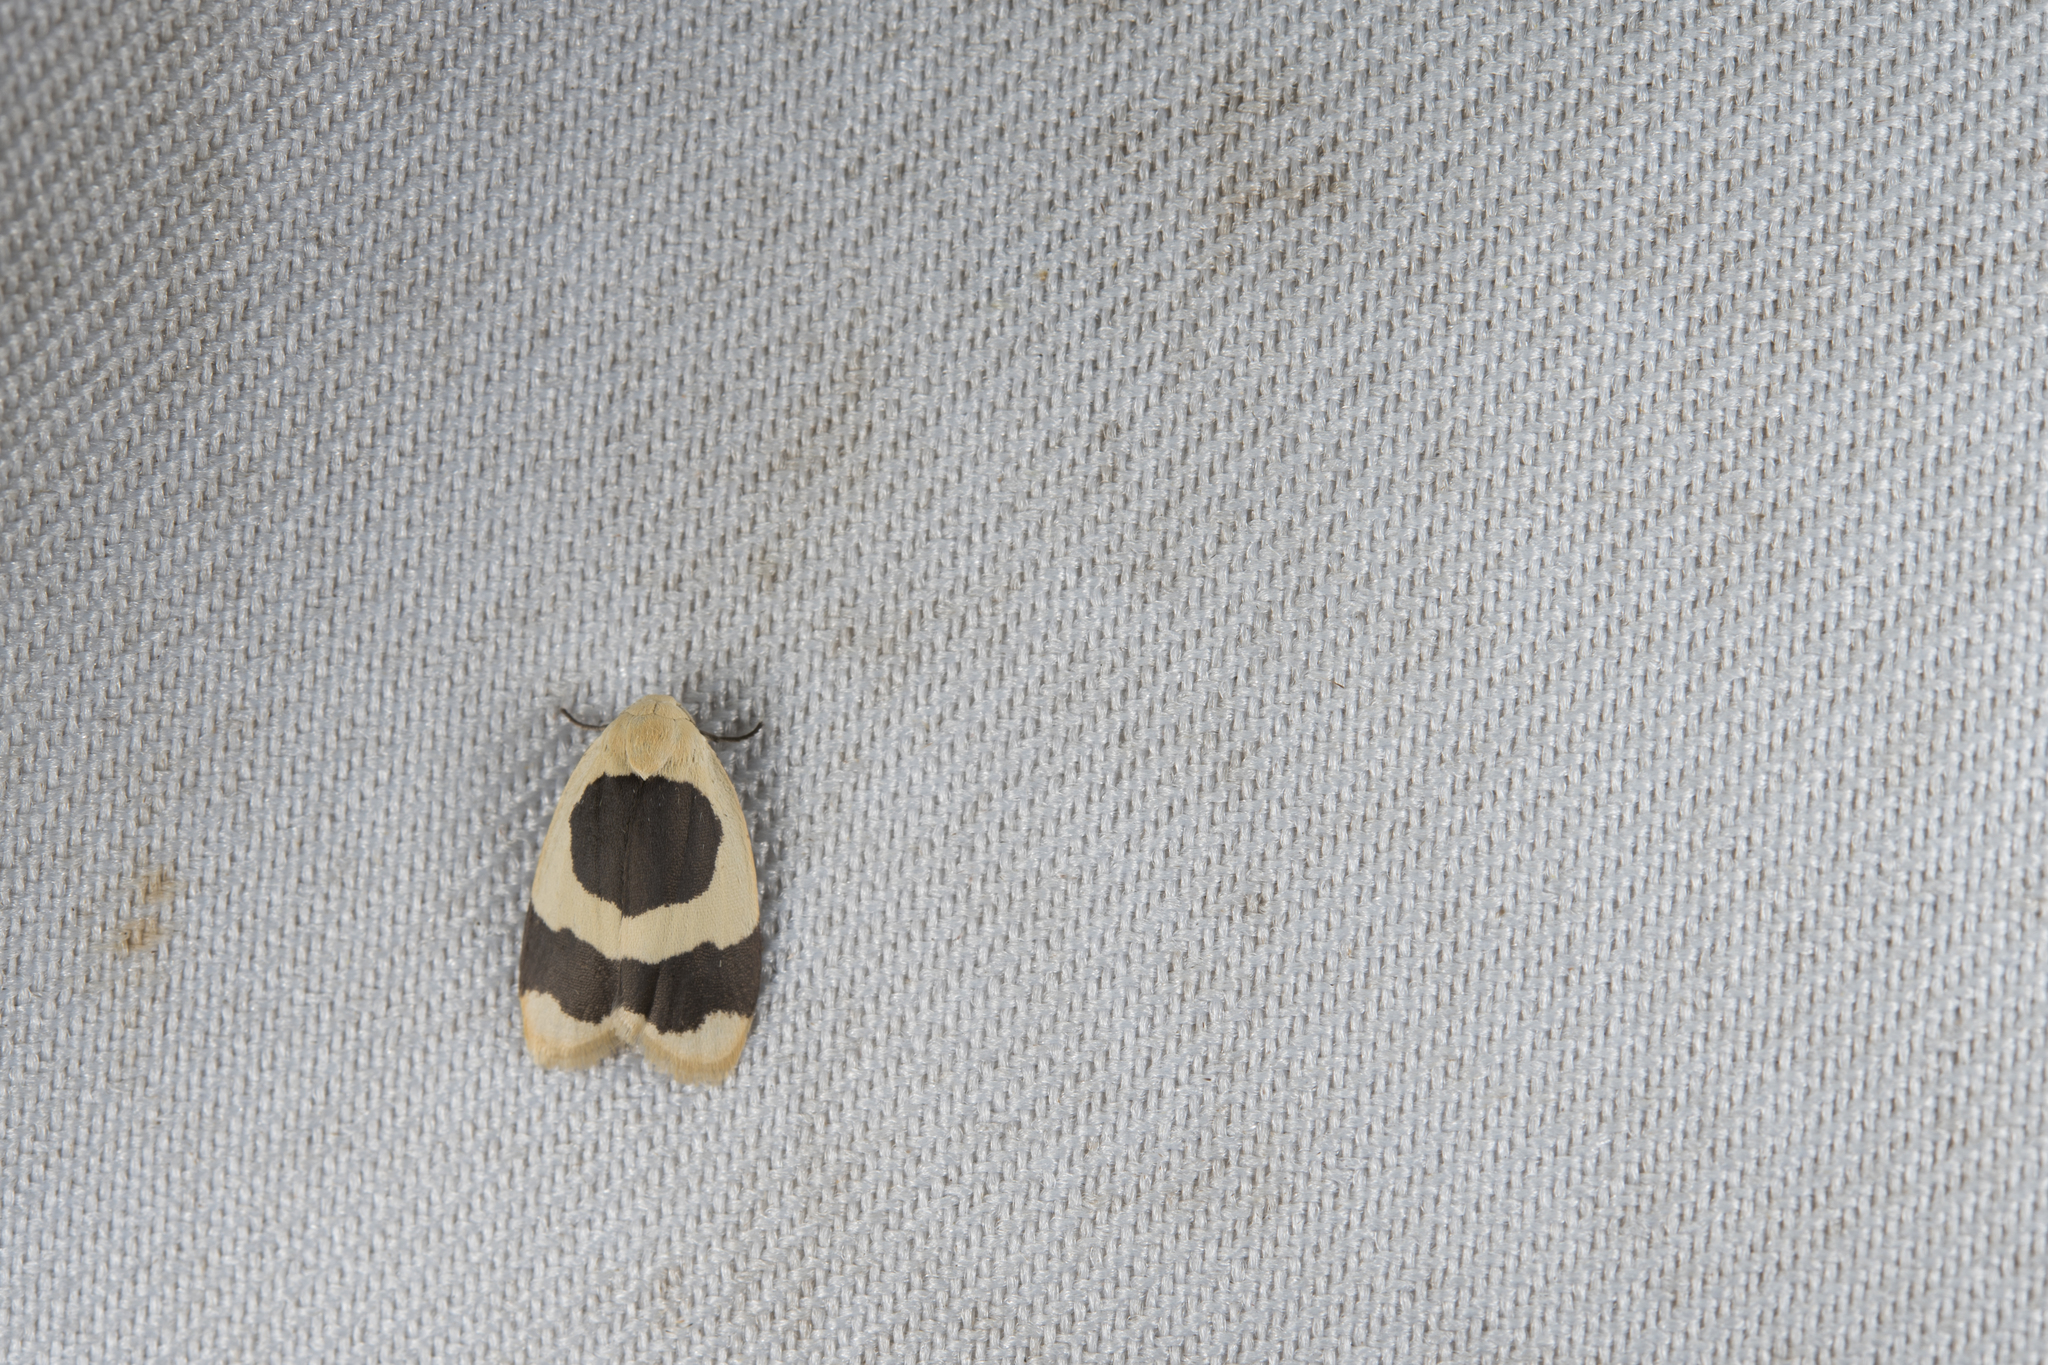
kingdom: Animalia
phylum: Arthropoda
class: Insecta
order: Lepidoptera
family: Erebidae
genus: Garudinia
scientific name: Garudinia taioana
